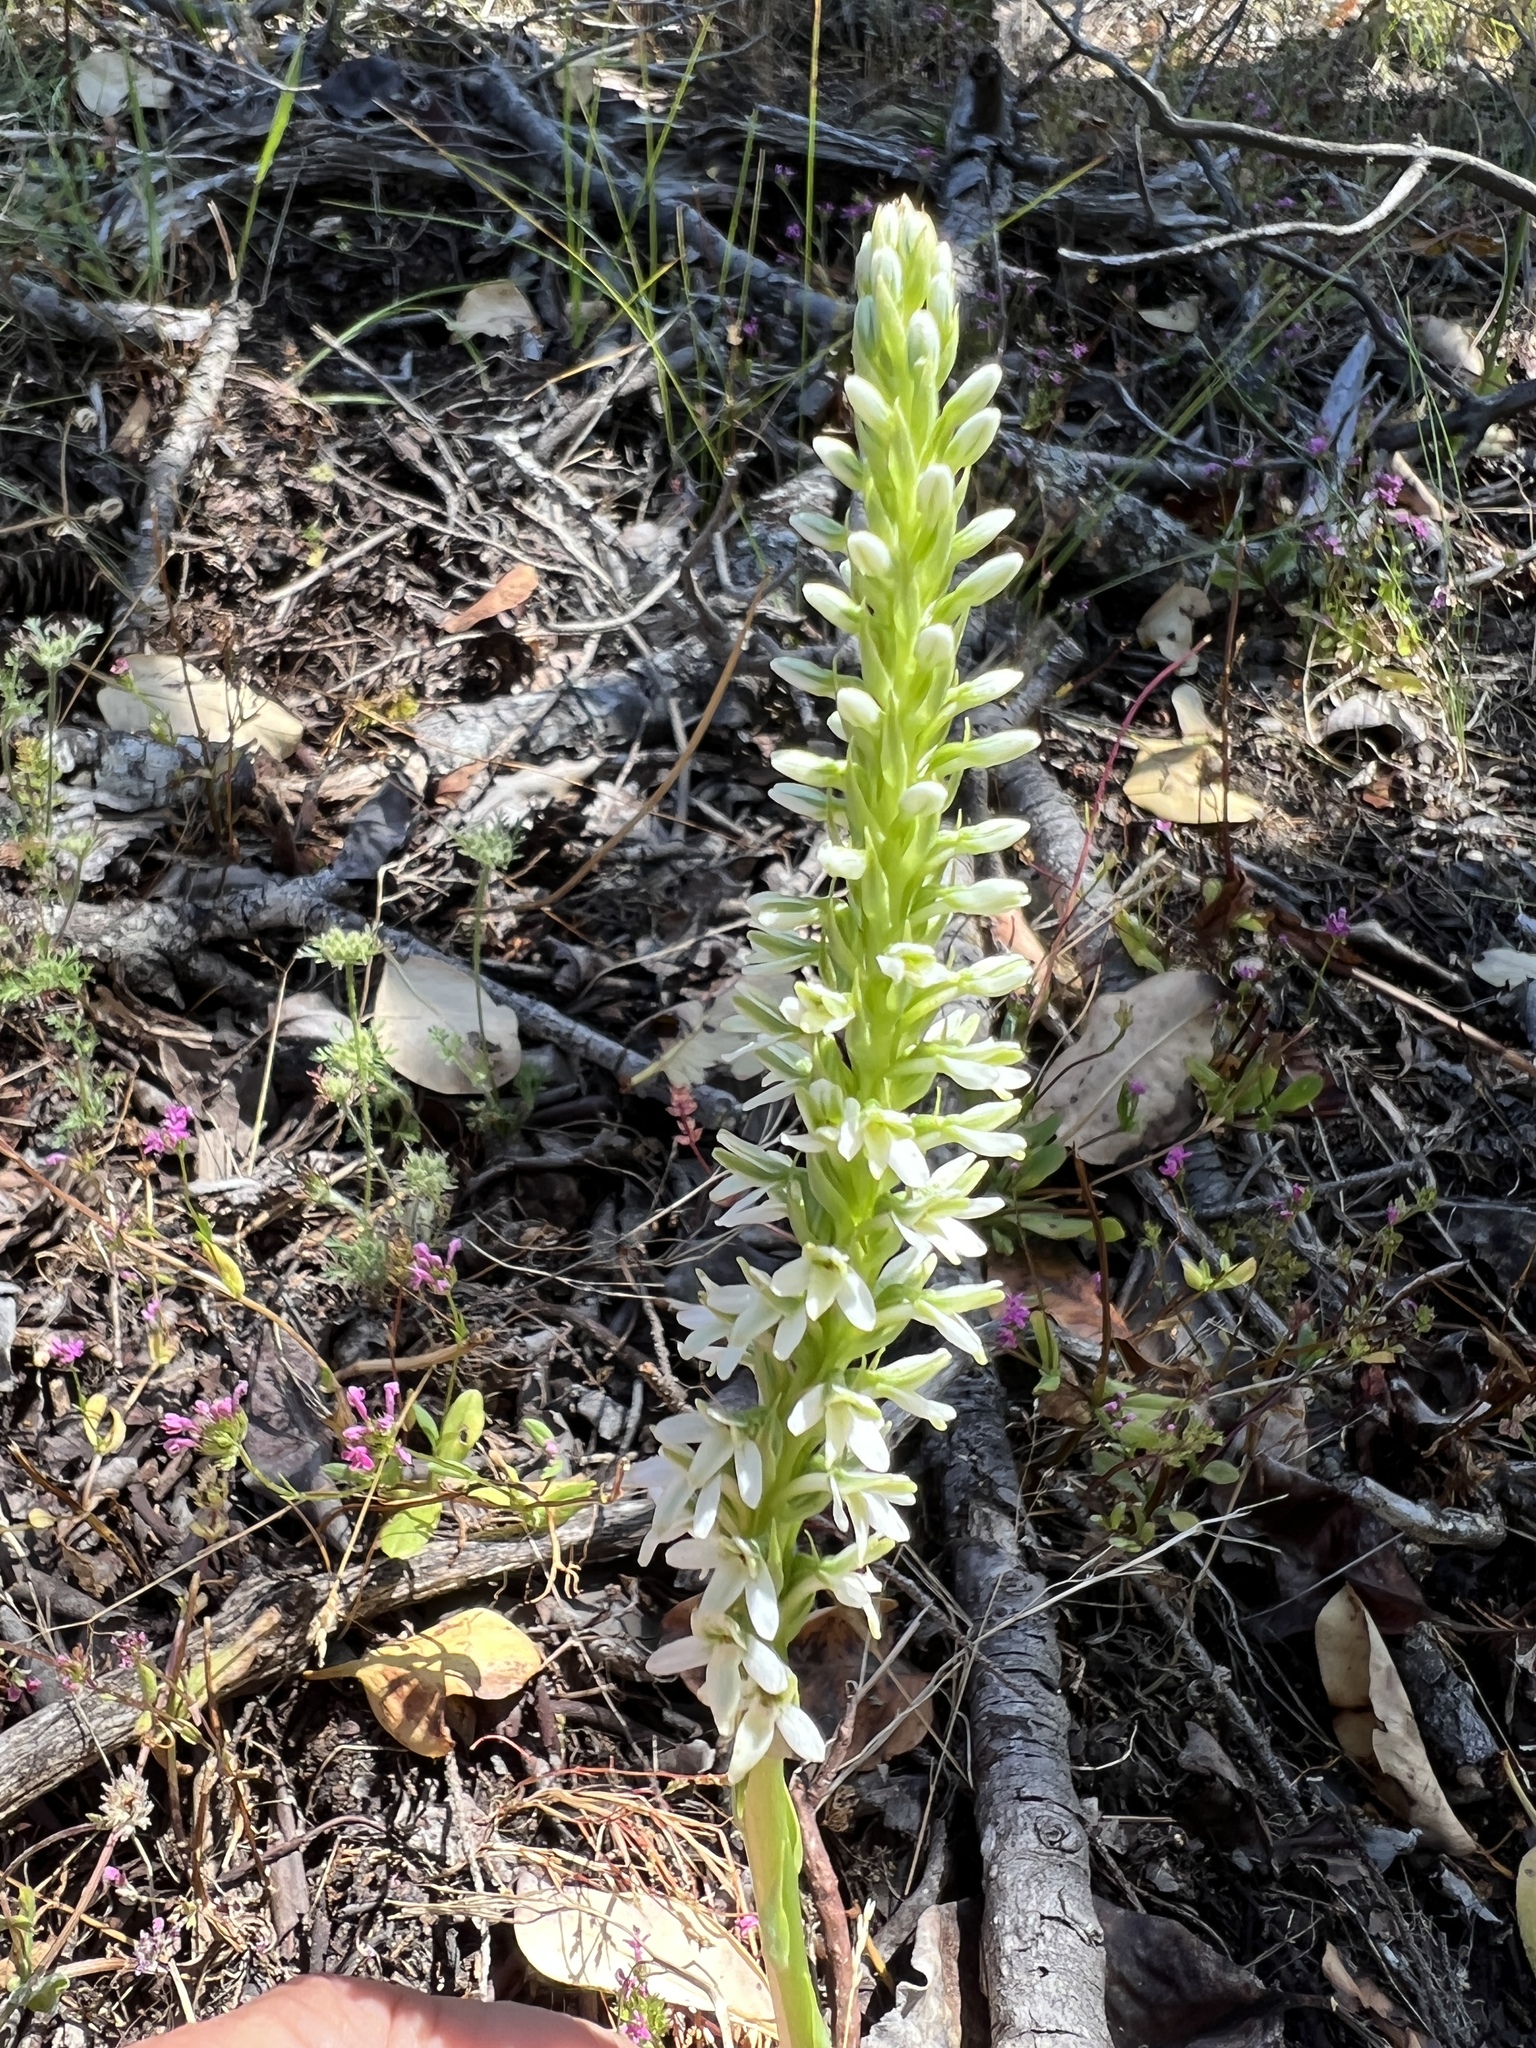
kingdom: Plantae
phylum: Tracheophyta
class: Liliopsida
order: Asparagales
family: Orchidaceae
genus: Platanthera
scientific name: Platanthera elegans
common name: Coast piperia
